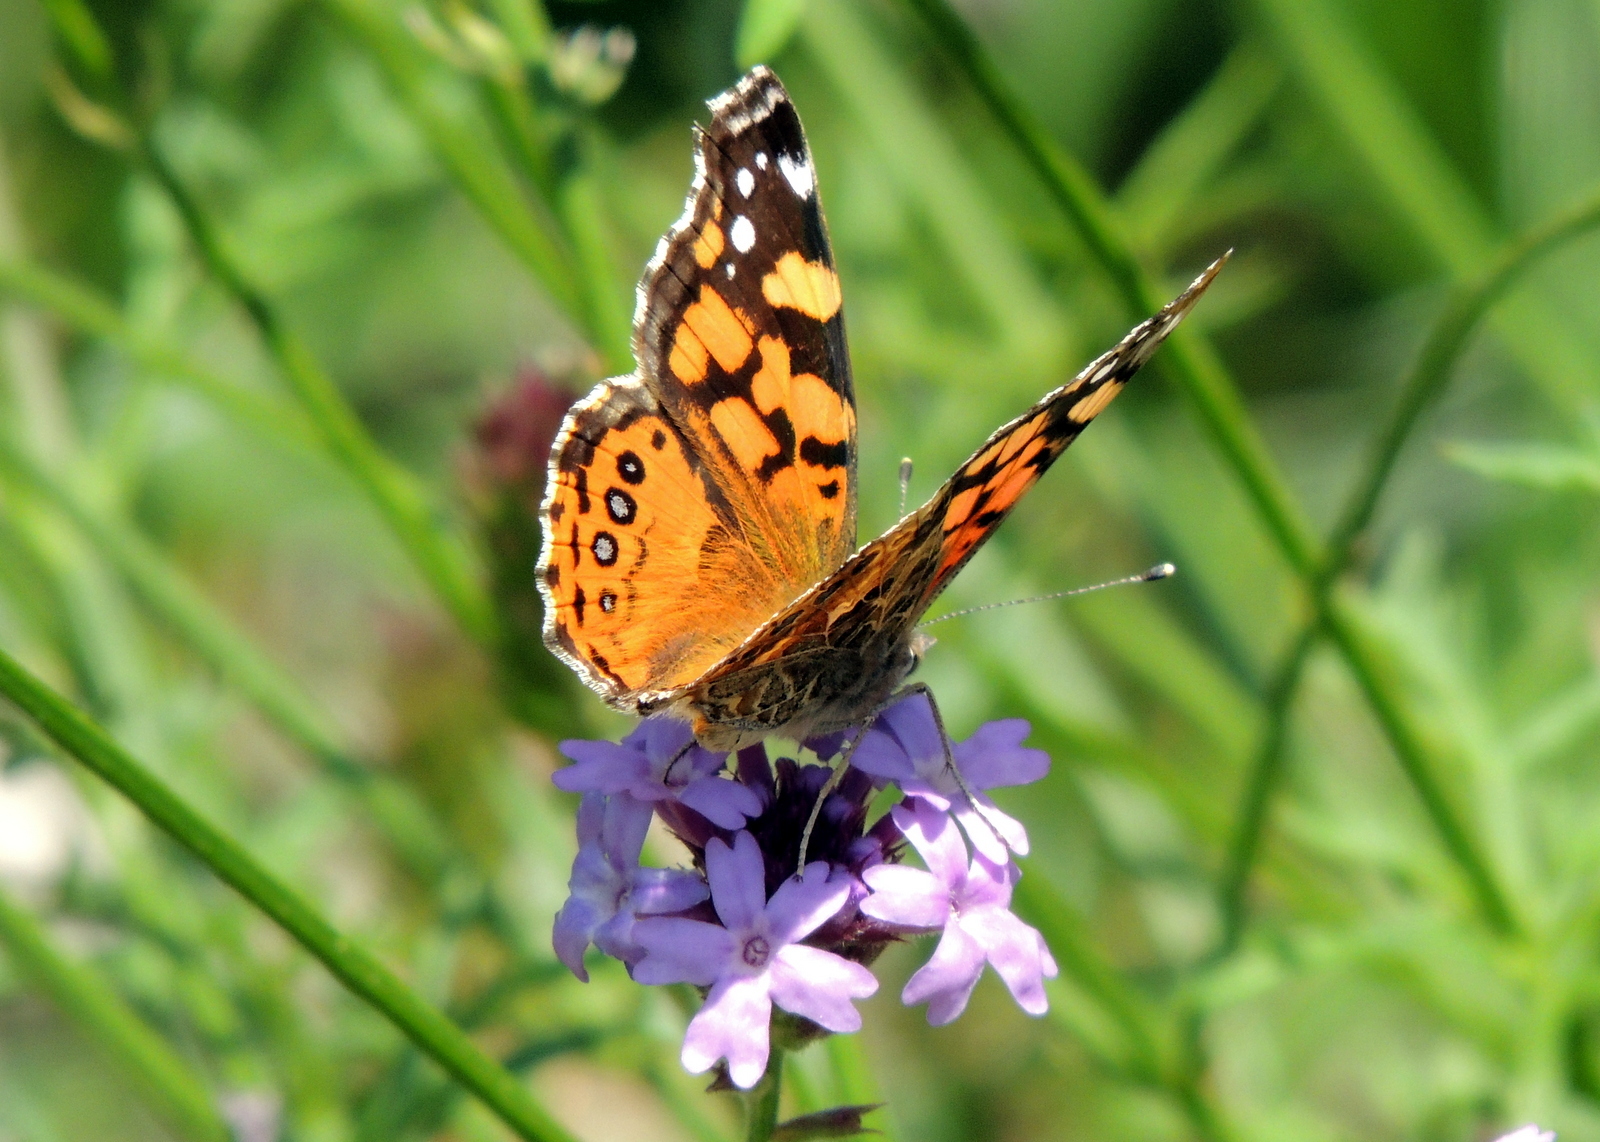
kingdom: Animalia
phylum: Arthropoda
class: Insecta
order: Lepidoptera
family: Nymphalidae
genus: Vanessa
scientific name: Vanessa annabella
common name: West coast lady
